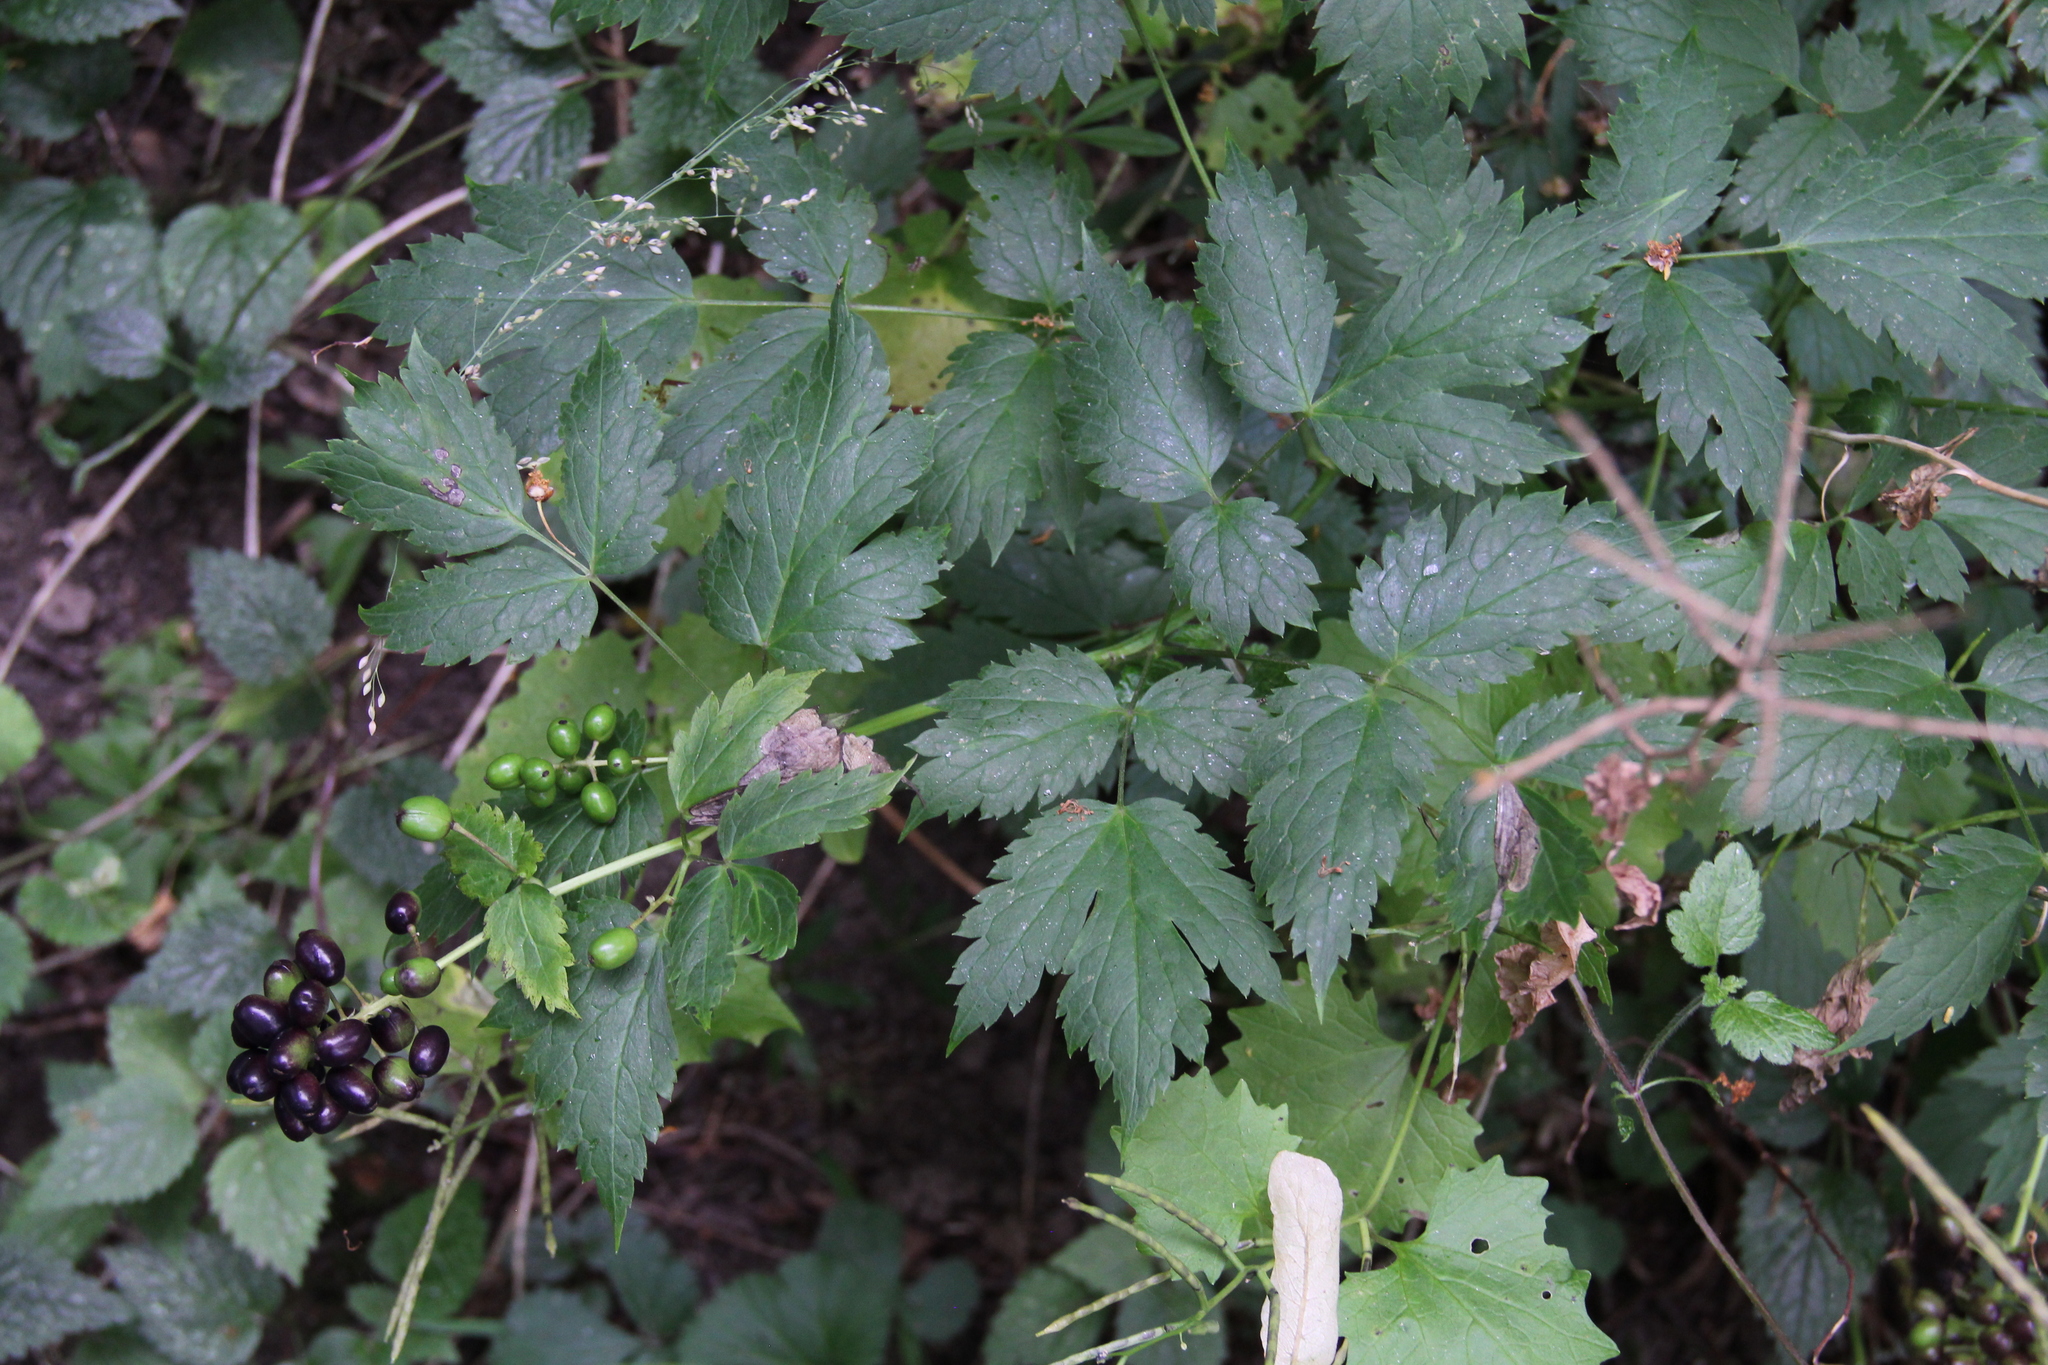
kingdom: Plantae
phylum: Tracheophyta
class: Magnoliopsida
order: Ranunculales
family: Ranunculaceae
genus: Actaea
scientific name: Actaea spicata
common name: Baneberry
